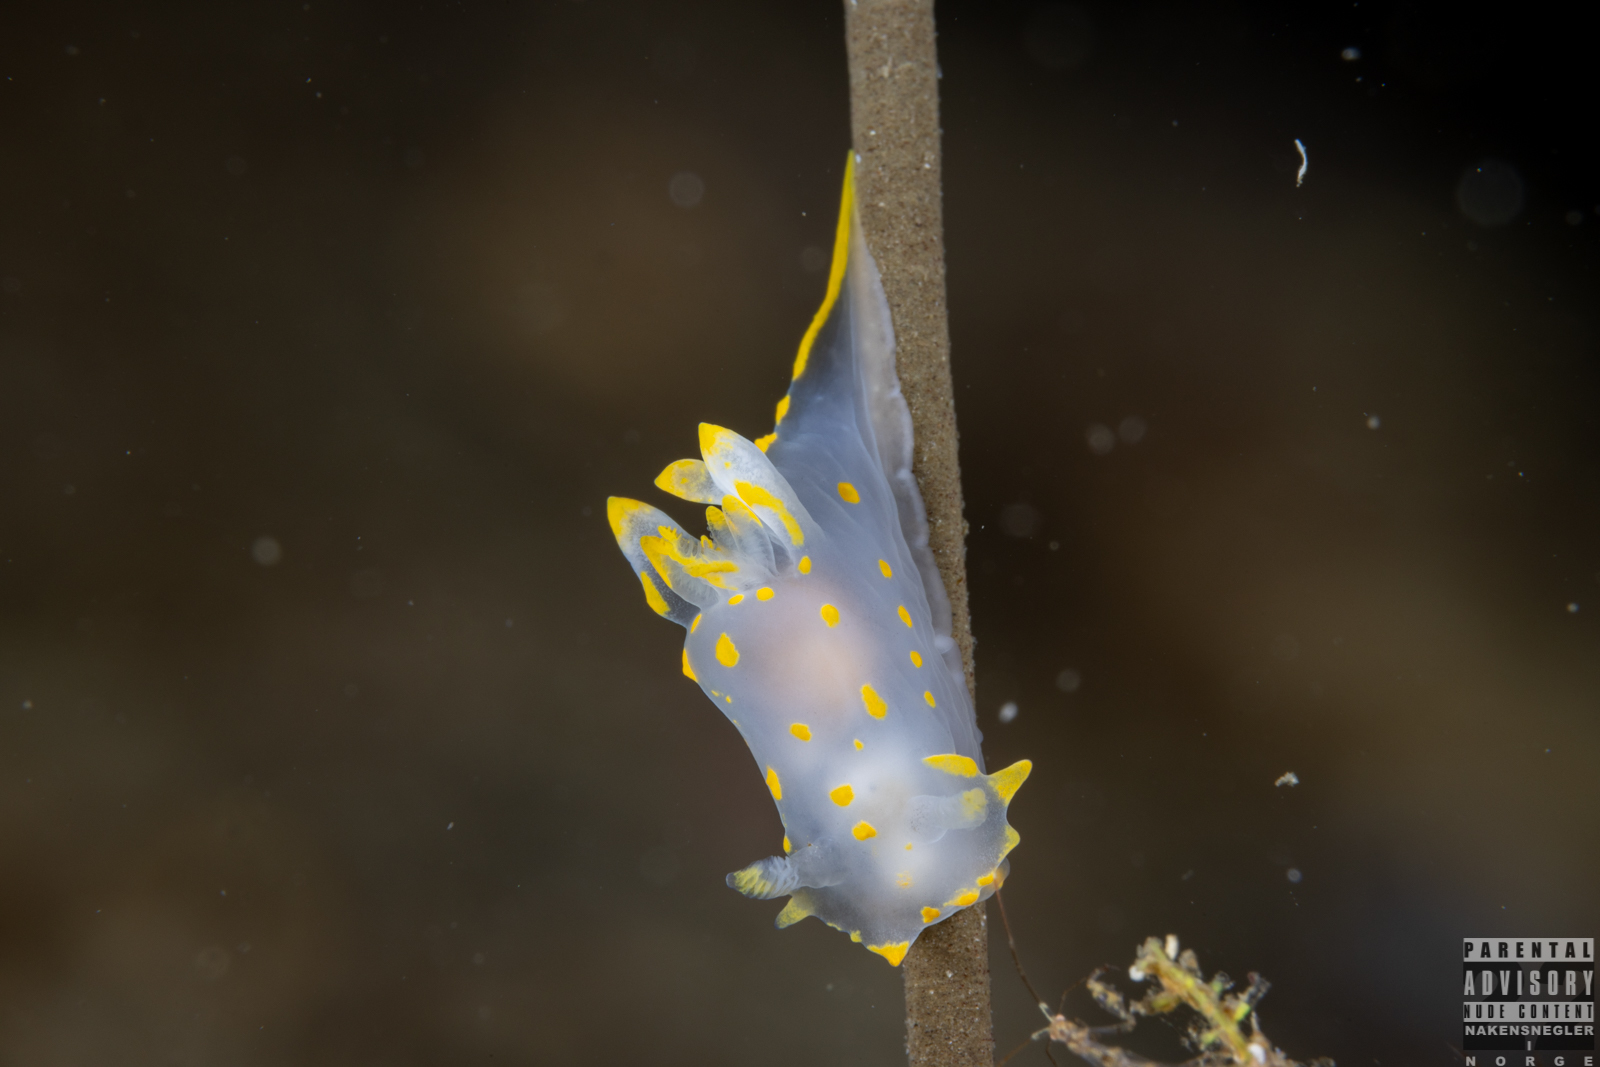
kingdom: Animalia
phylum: Mollusca
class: Gastropoda
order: Nudibranchia
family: Polyceridae
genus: Polycera
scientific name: Polycera quadrilineata
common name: Four-striped polycera
